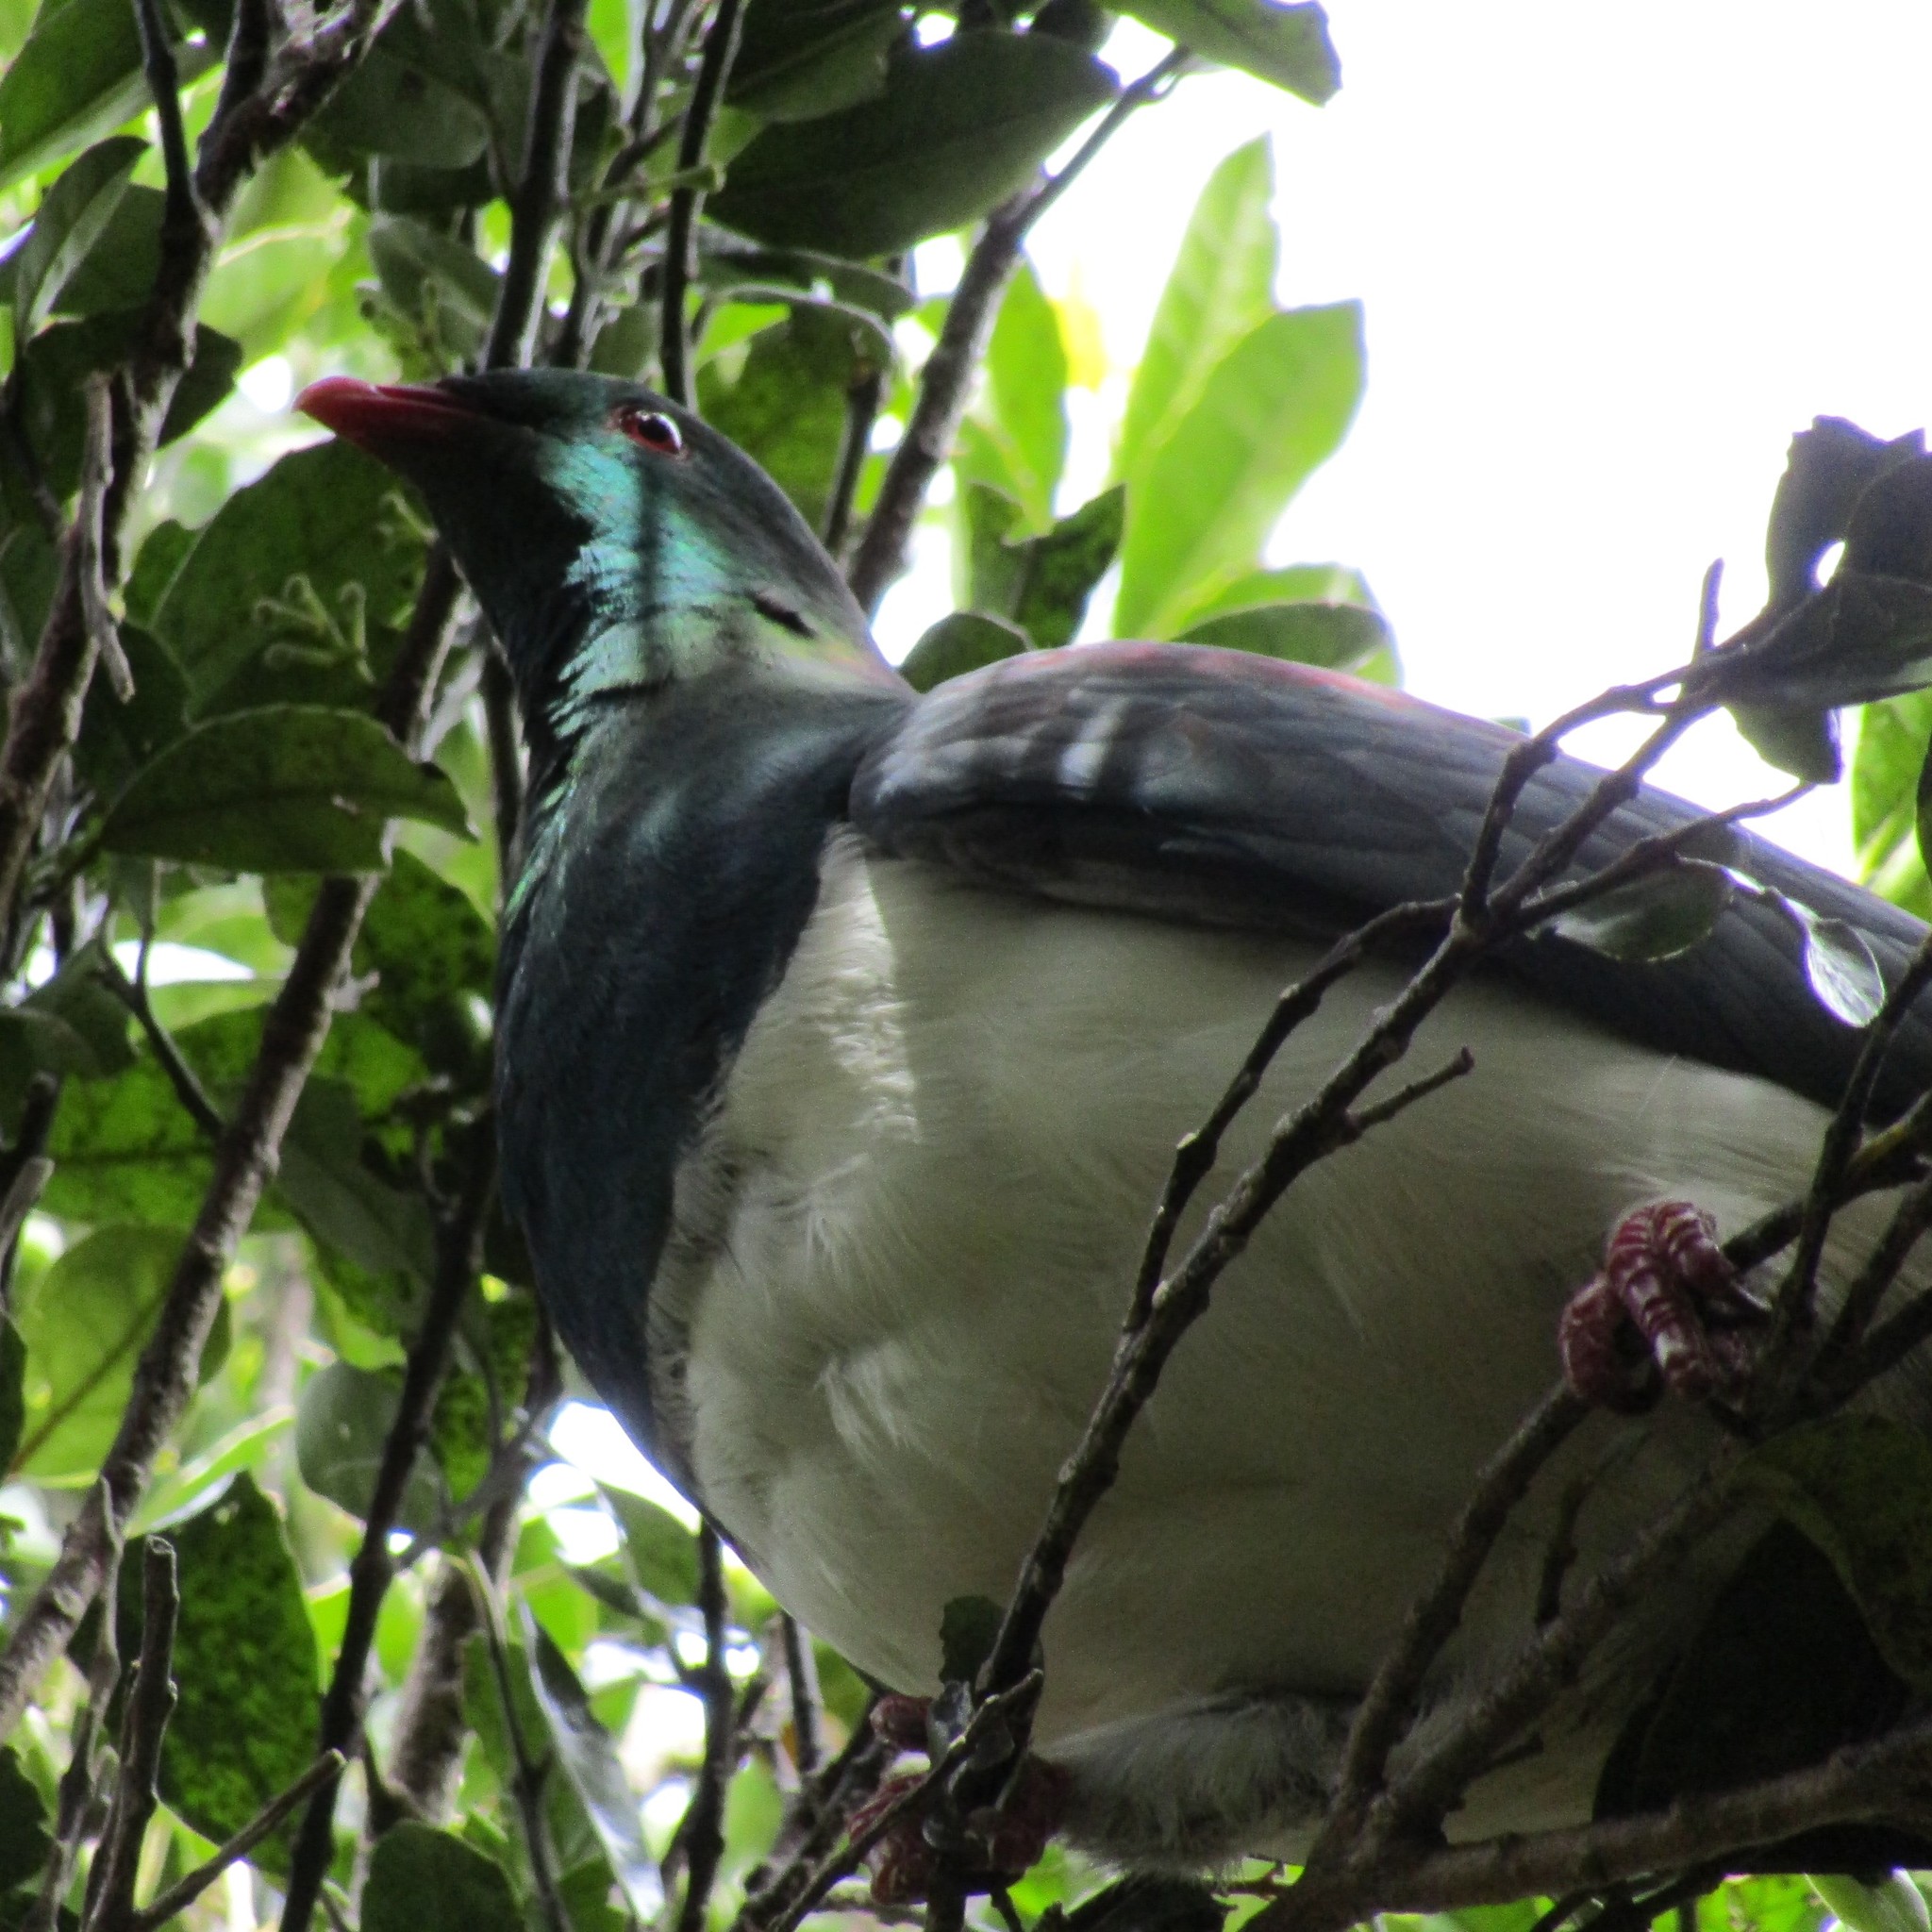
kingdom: Animalia
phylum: Chordata
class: Aves
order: Columbiformes
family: Columbidae
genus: Hemiphaga
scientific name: Hemiphaga novaeseelandiae
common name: New zealand pigeon
